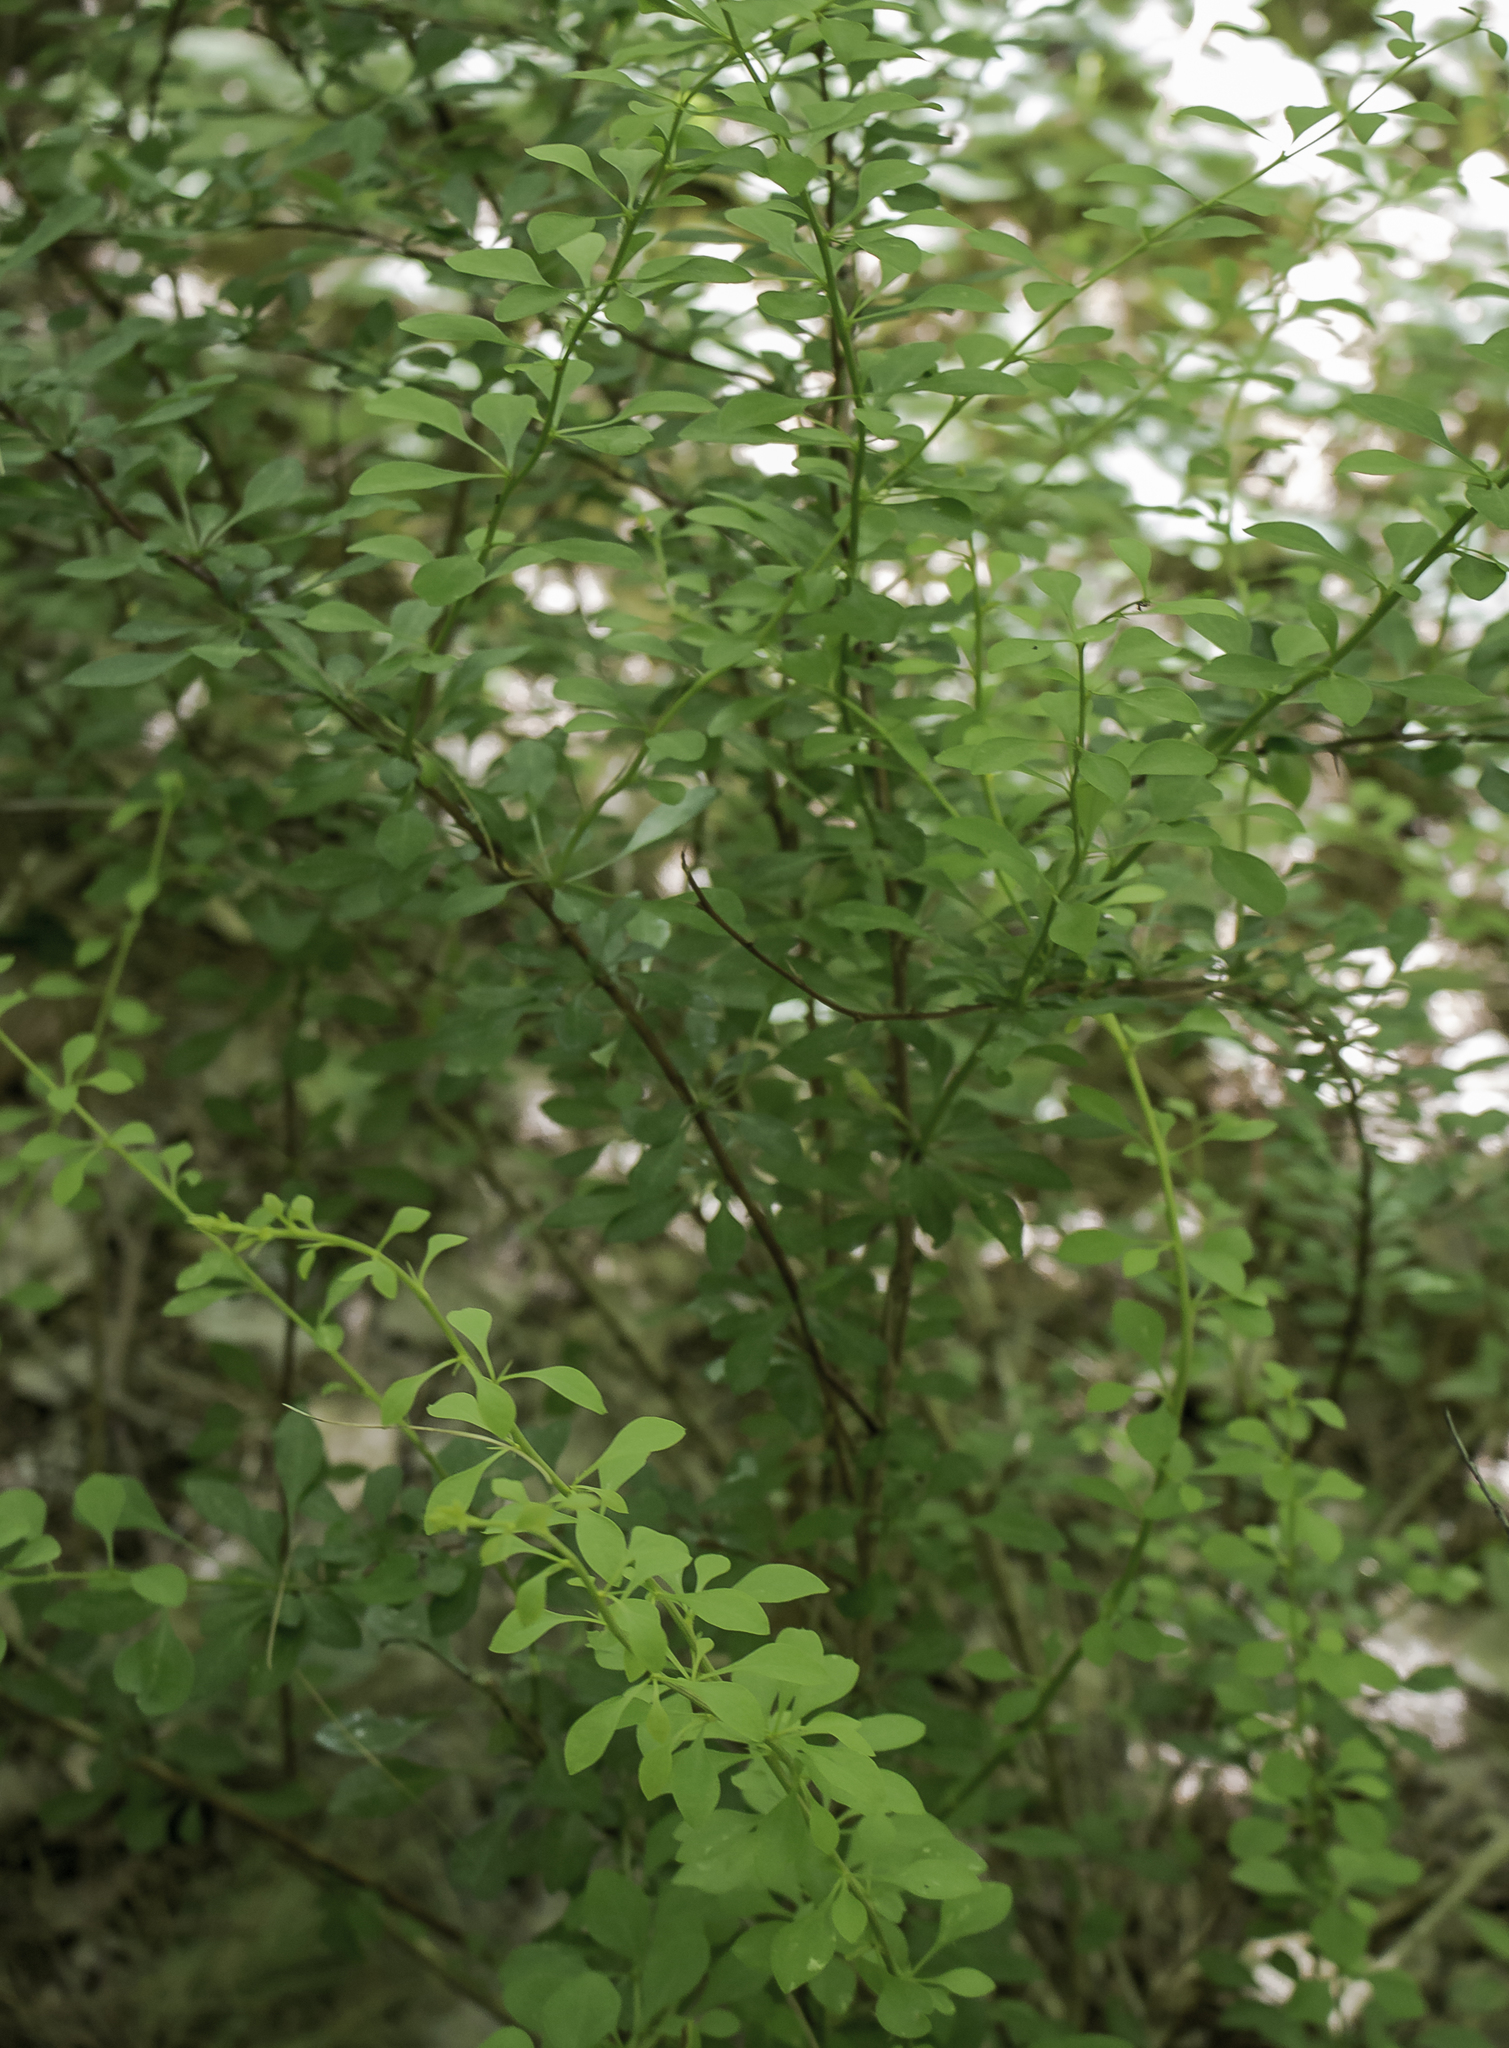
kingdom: Plantae
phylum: Tracheophyta
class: Magnoliopsida
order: Ranunculales
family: Berberidaceae
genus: Berberis
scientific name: Berberis thunbergii
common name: Japanese barberry
